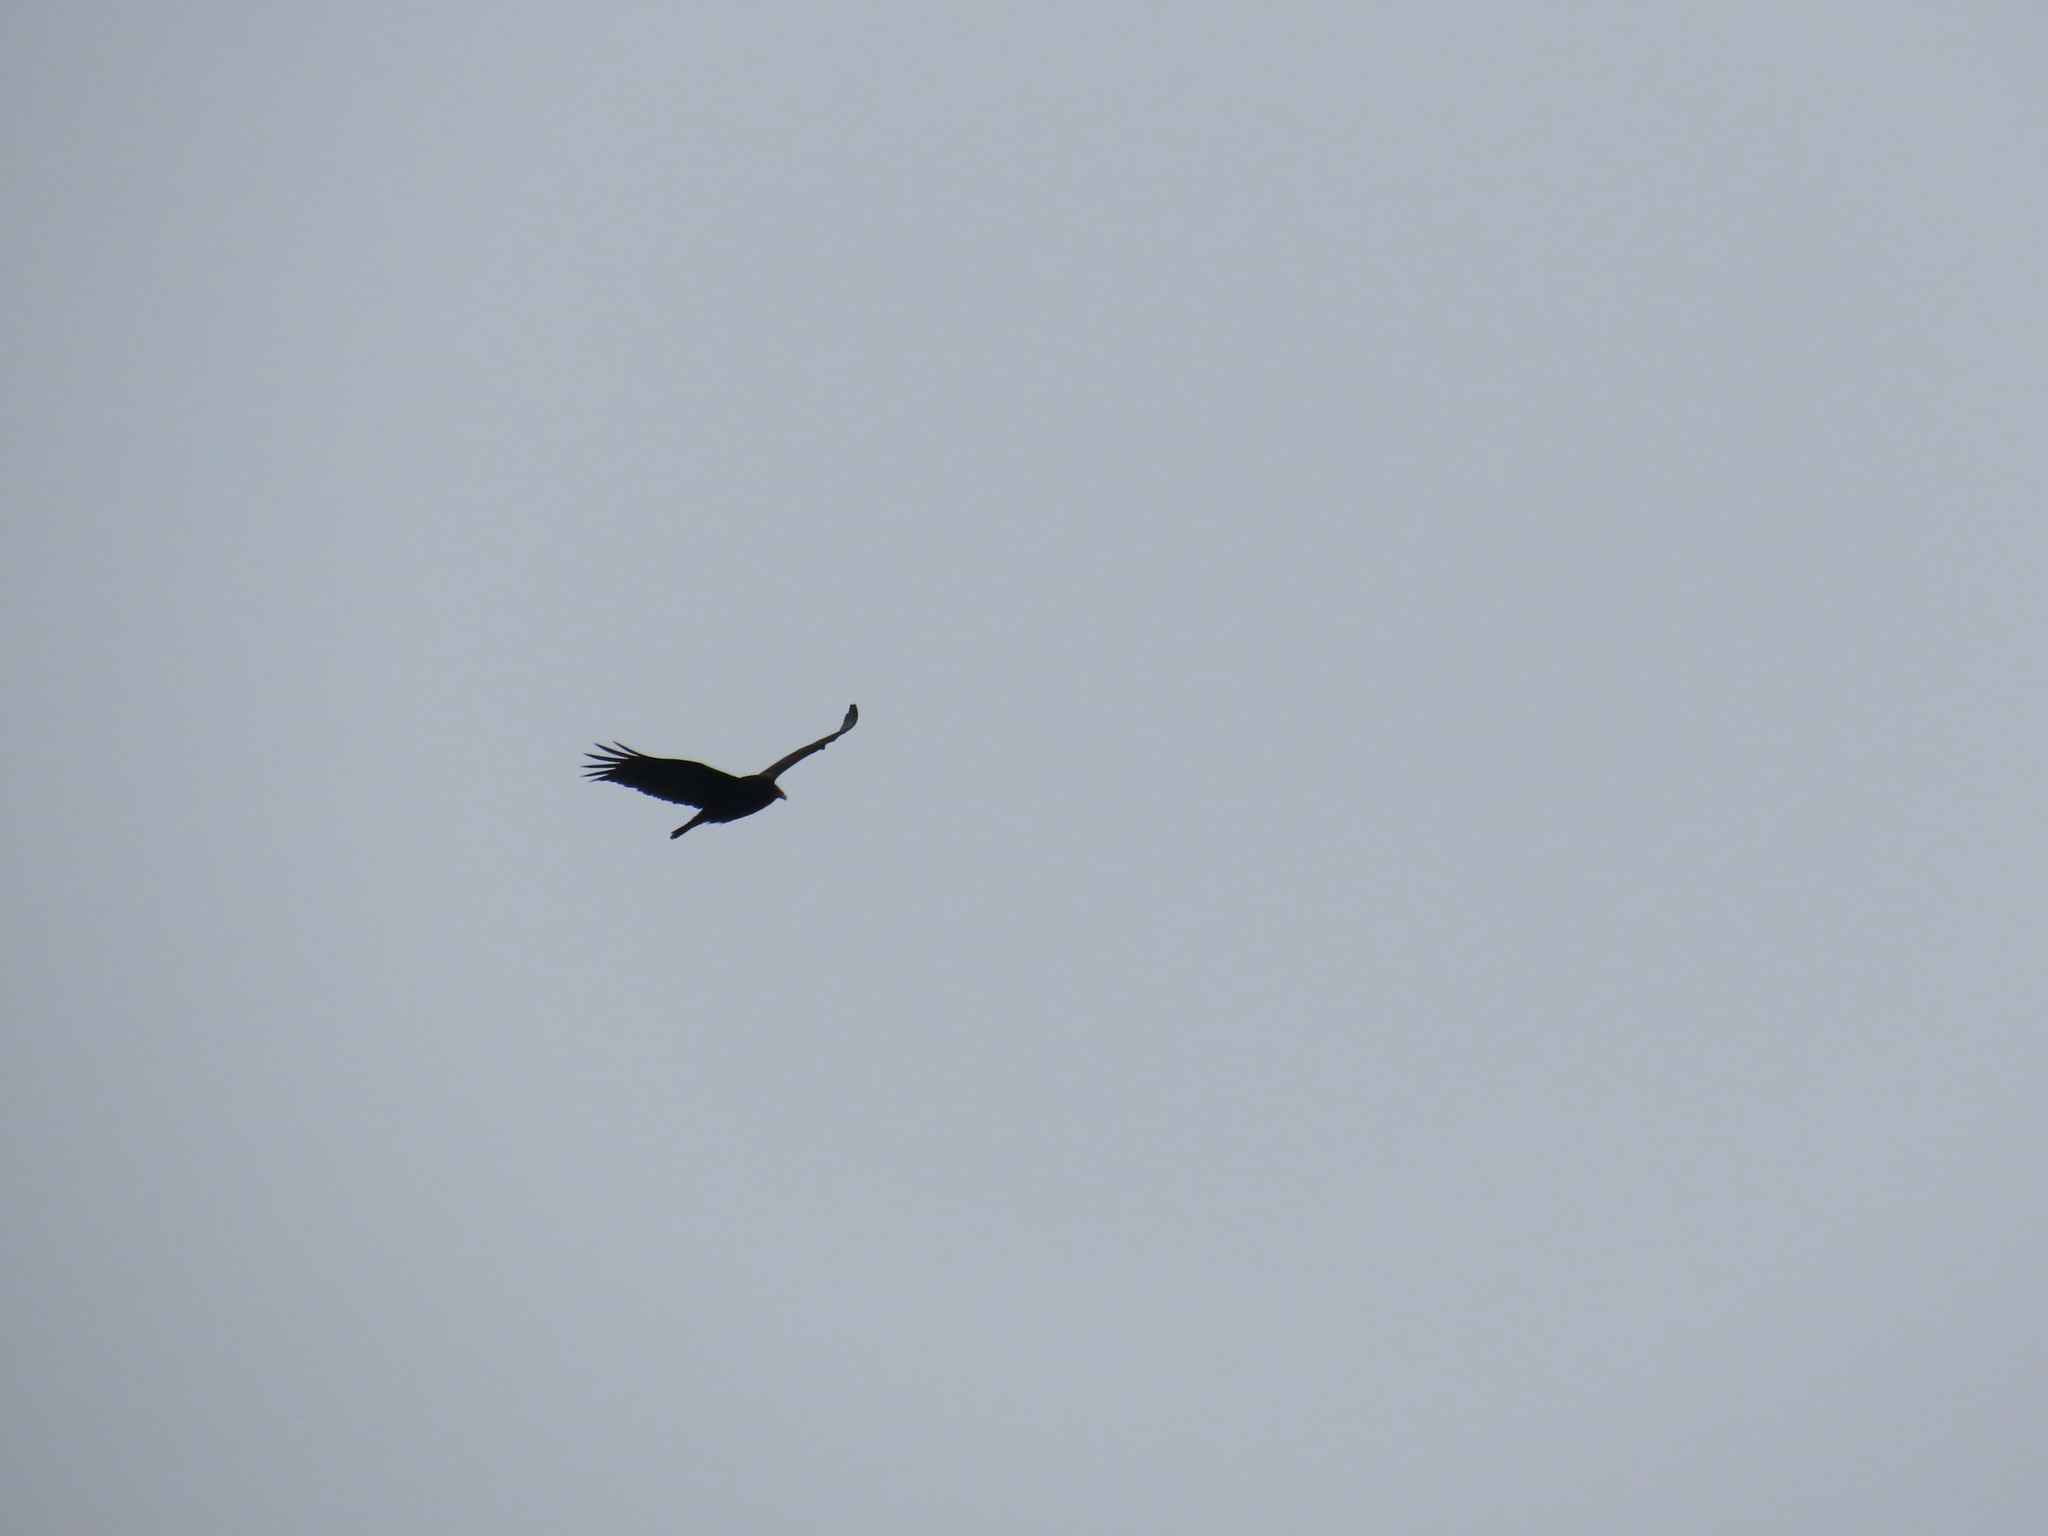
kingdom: Animalia
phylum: Chordata
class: Aves
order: Accipitriformes
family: Cathartidae
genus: Cathartes
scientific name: Cathartes aura
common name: Turkey vulture
